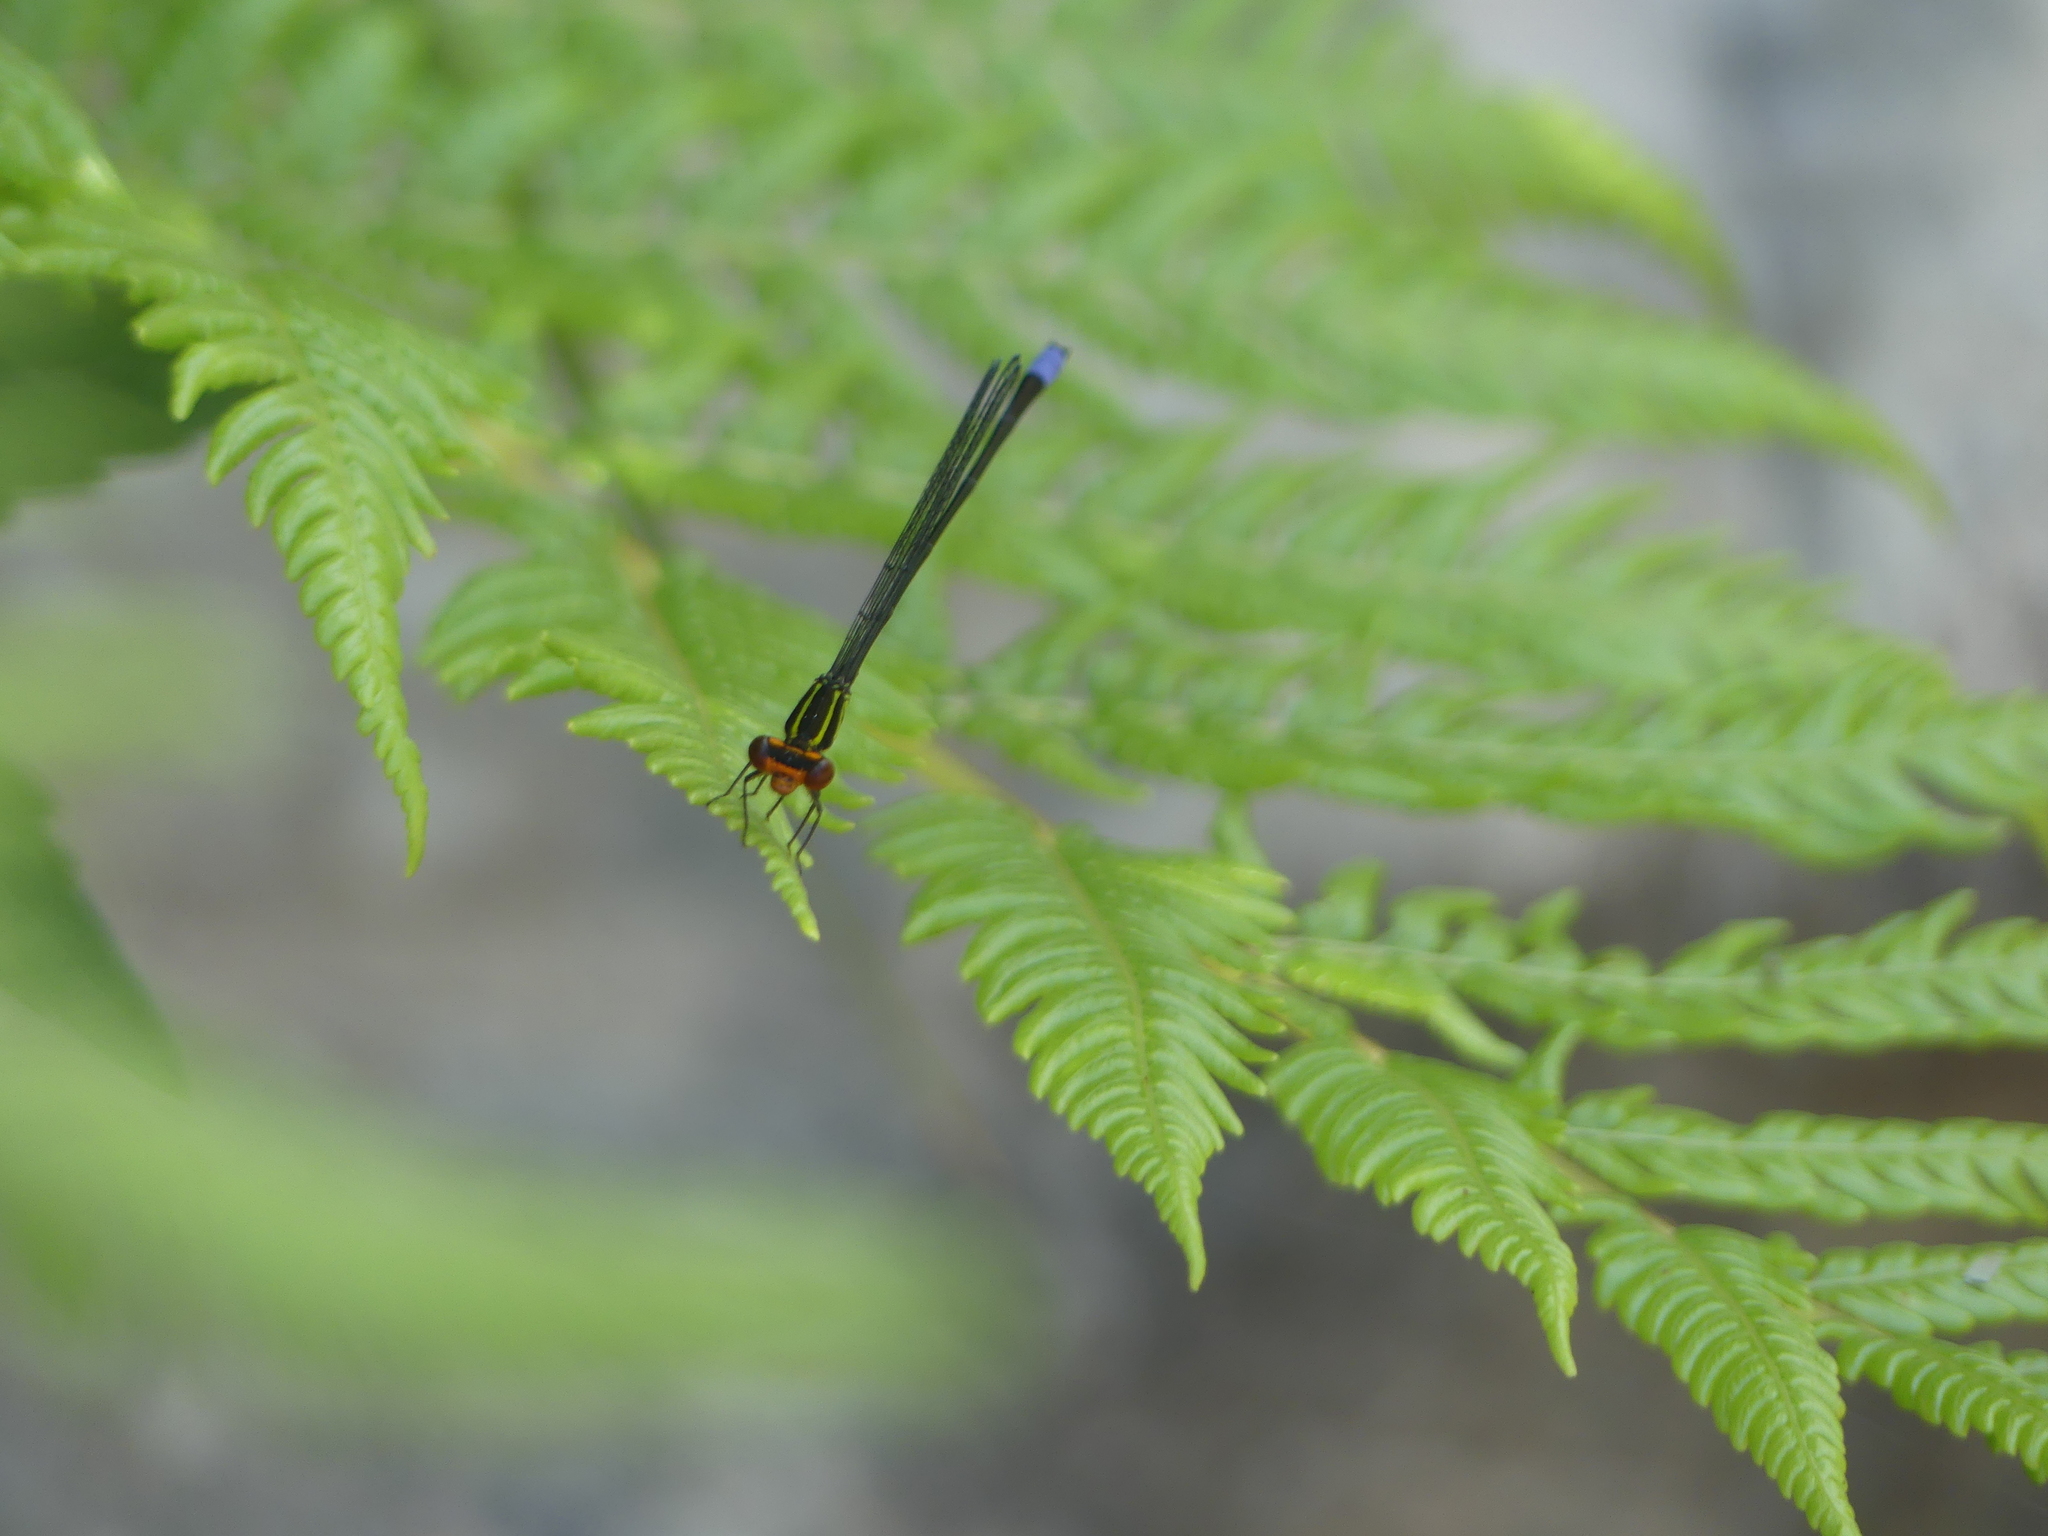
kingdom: Animalia
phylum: Arthropoda
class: Insecta
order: Odonata
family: Coenagrionidae
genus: Pseudagrion
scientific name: Pseudagrion hageni
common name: Painted sprite
